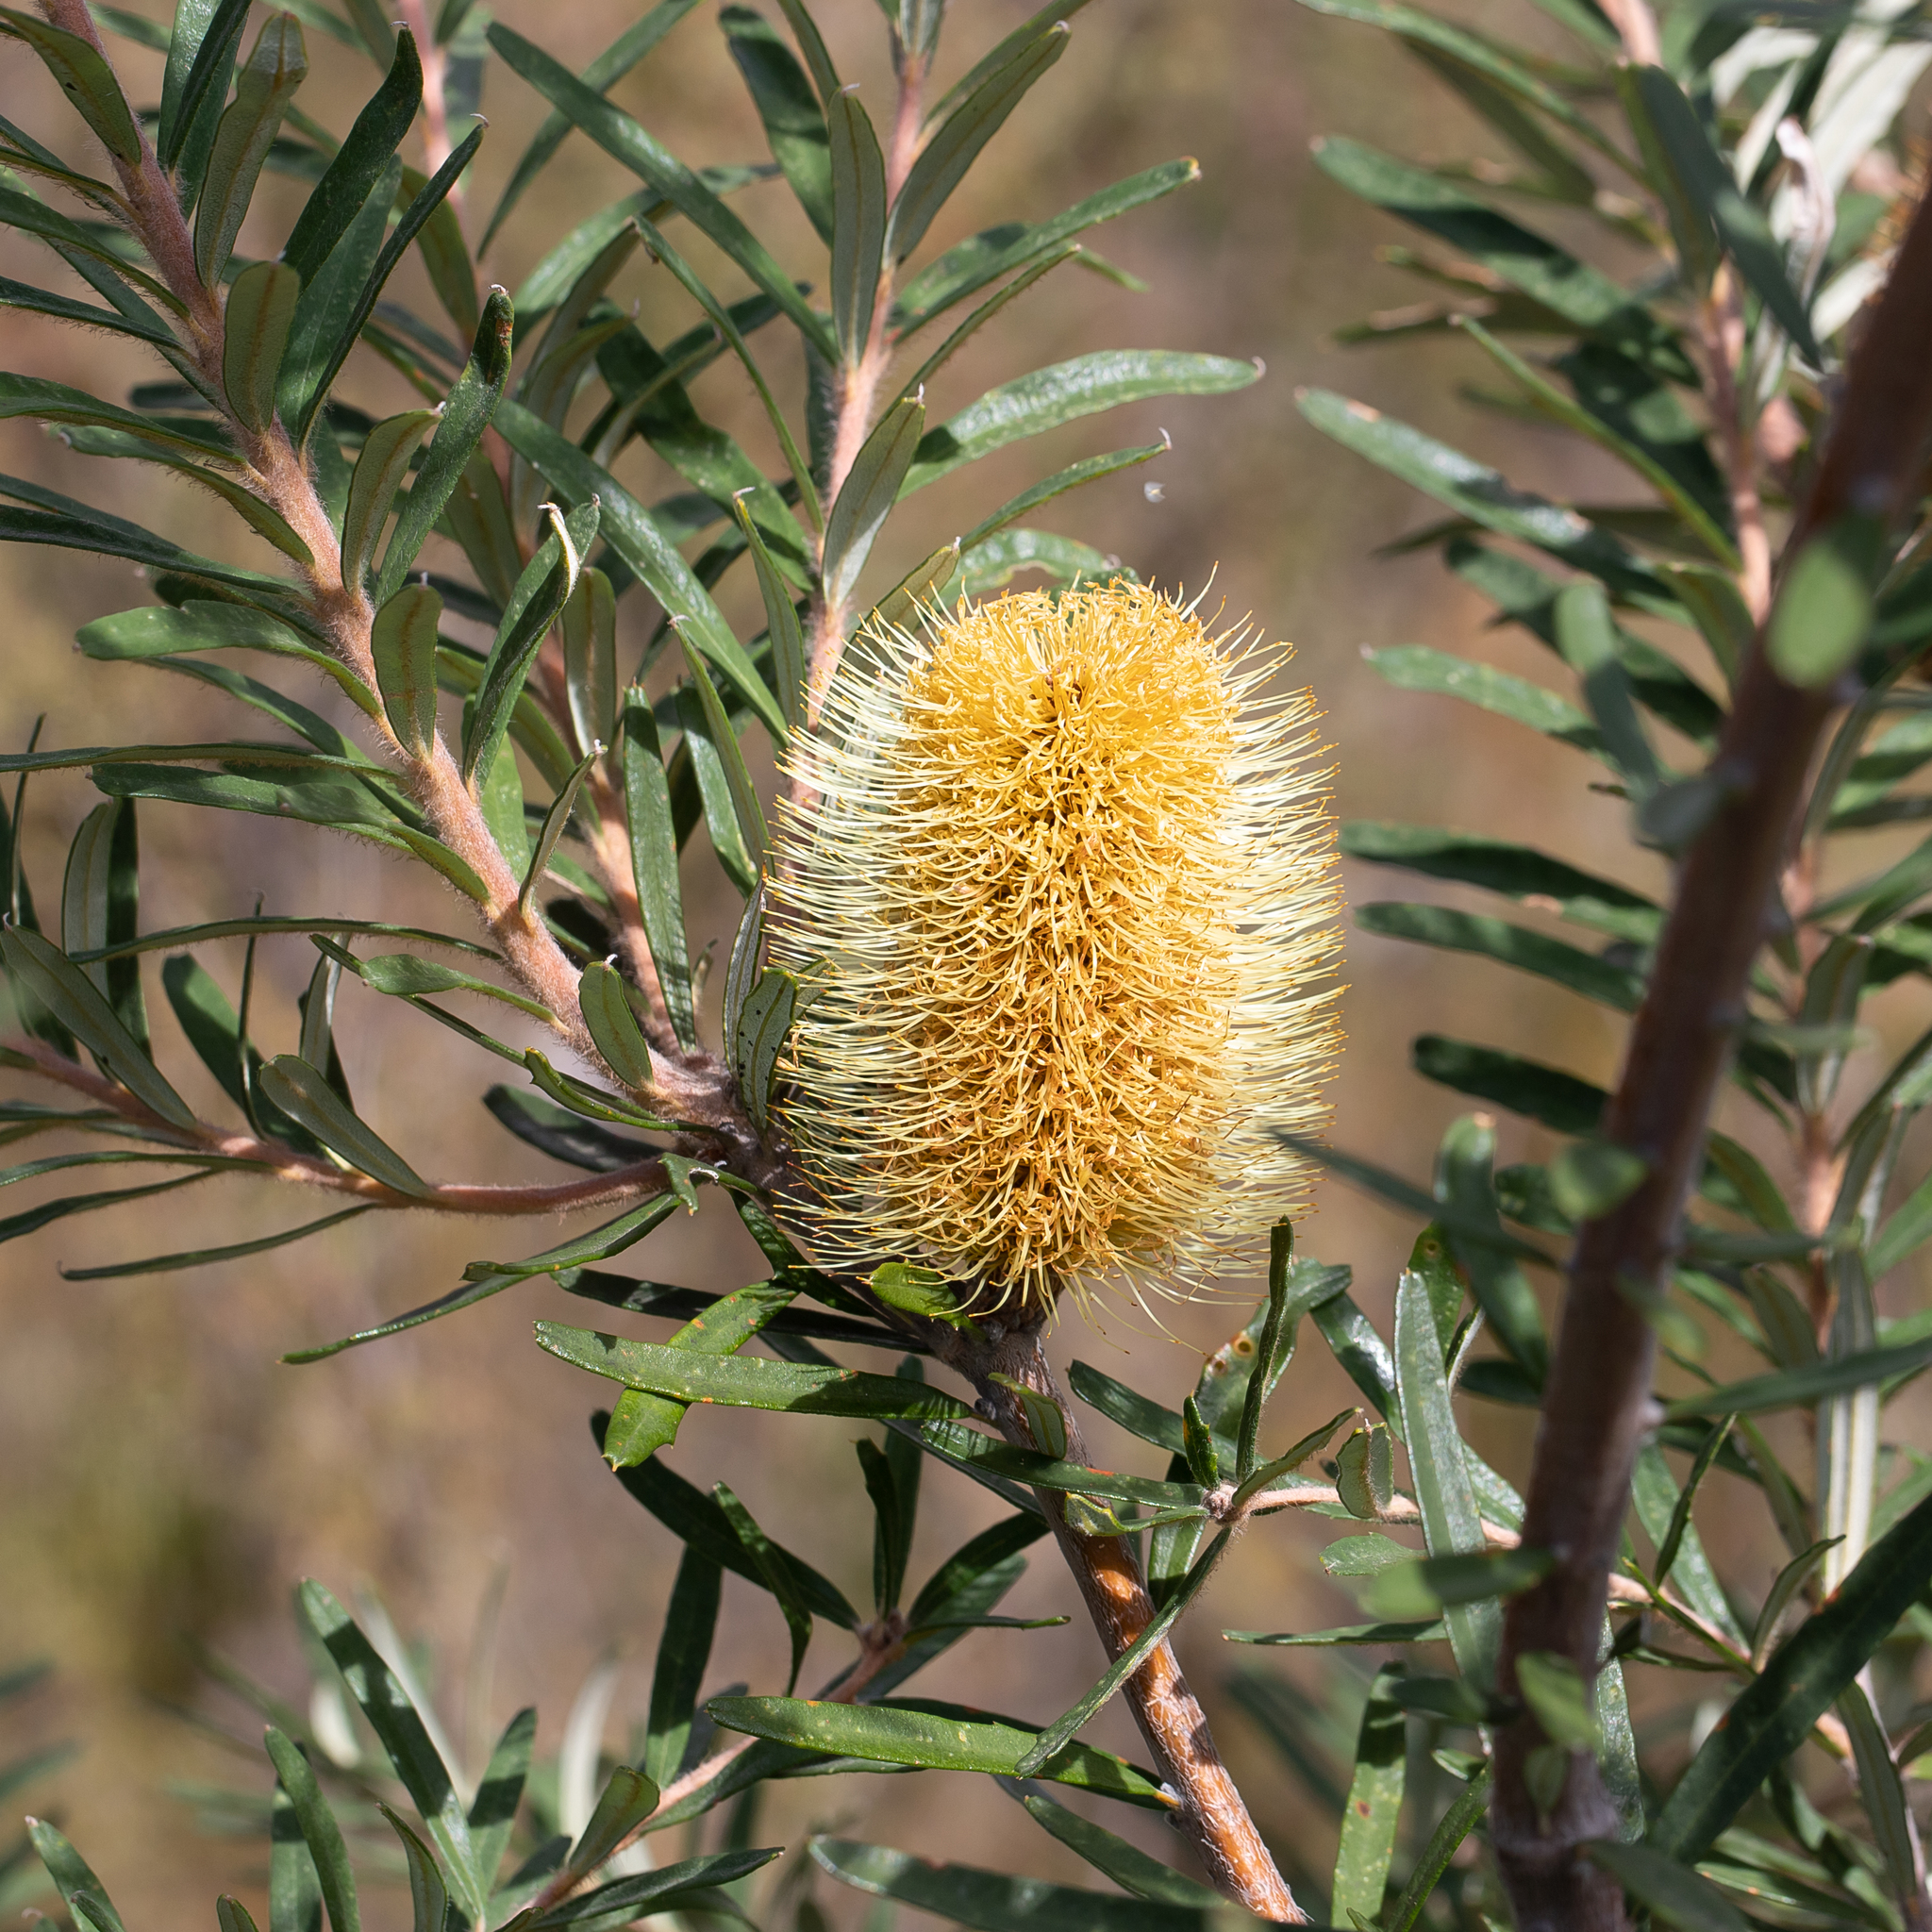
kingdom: Plantae
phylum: Tracheophyta
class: Magnoliopsida
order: Proteales
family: Proteaceae
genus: Banksia
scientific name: Banksia marginata
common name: Silver banksia
